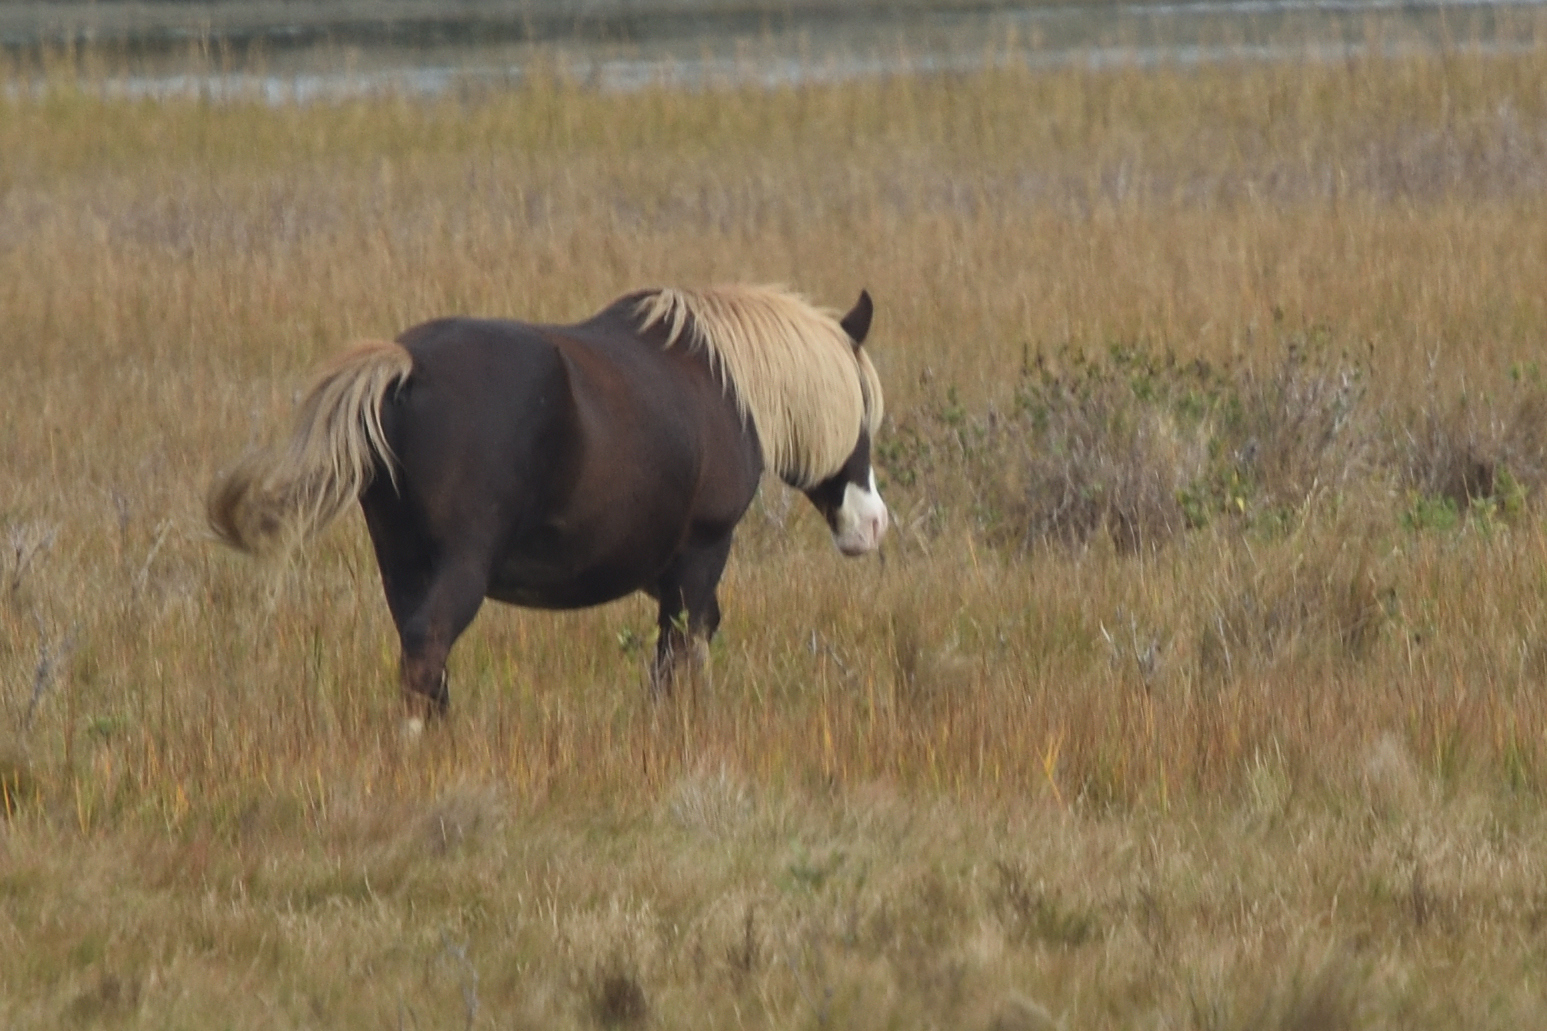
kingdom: Animalia
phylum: Chordata
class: Mammalia
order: Perissodactyla
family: Equidae
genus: Equus
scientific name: Equus caballus
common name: Horse
